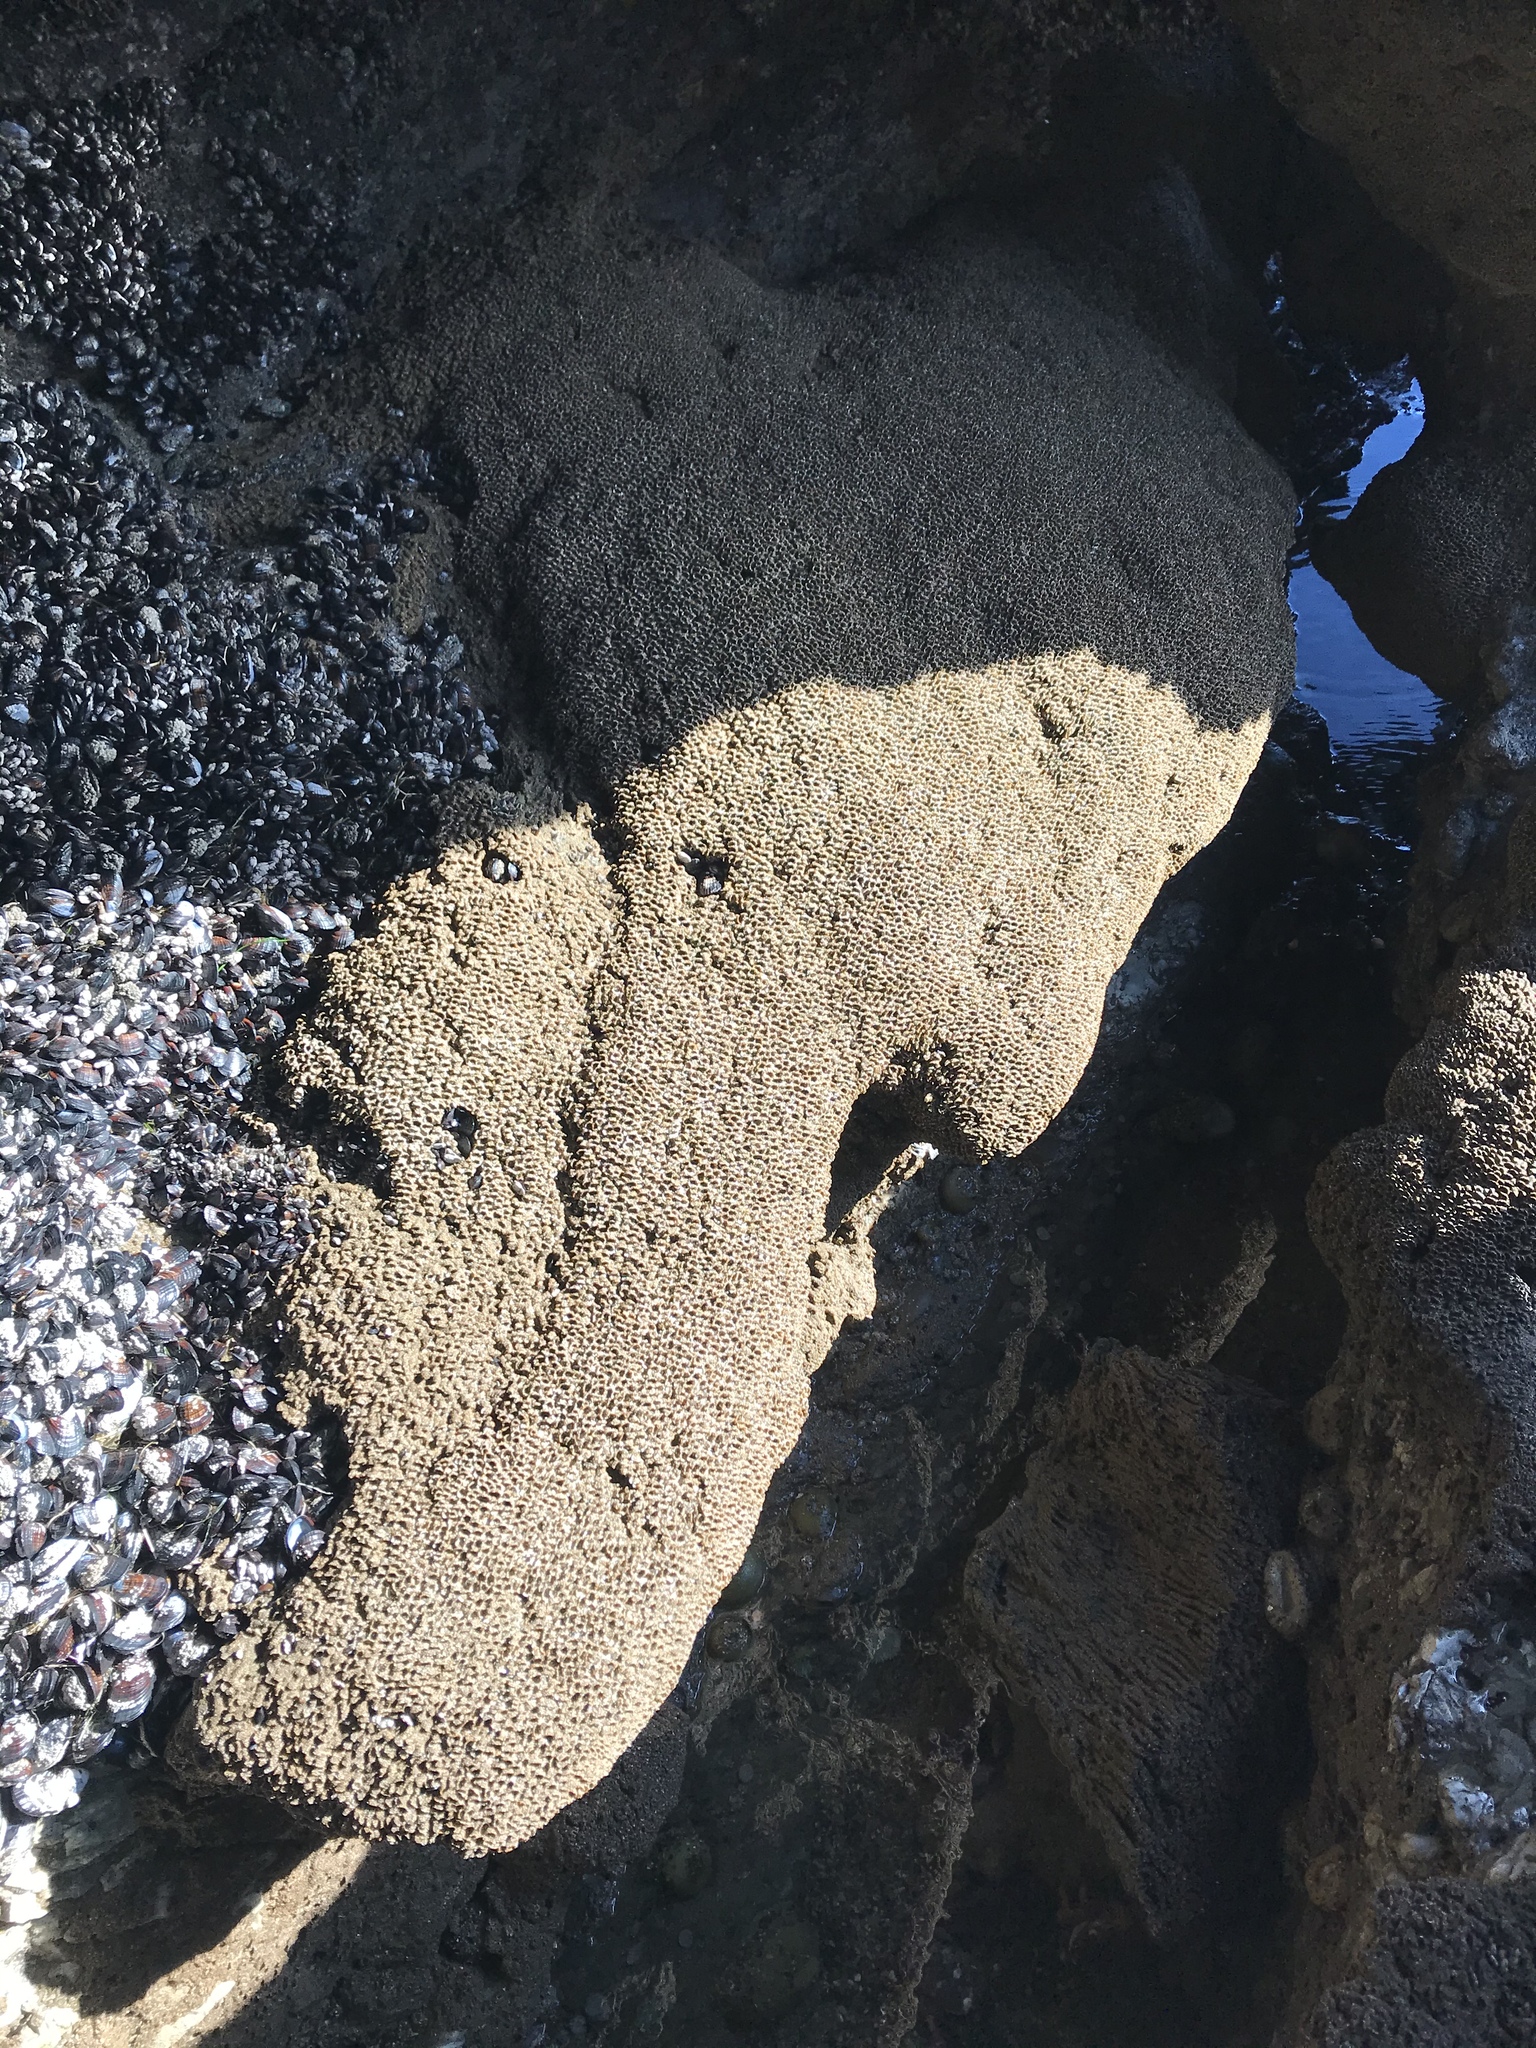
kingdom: Animalia
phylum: Annelida
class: Polychaeta
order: Sabellida
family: Sabellariidae
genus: Phragmatopoma
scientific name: Phragmatopoma californica
